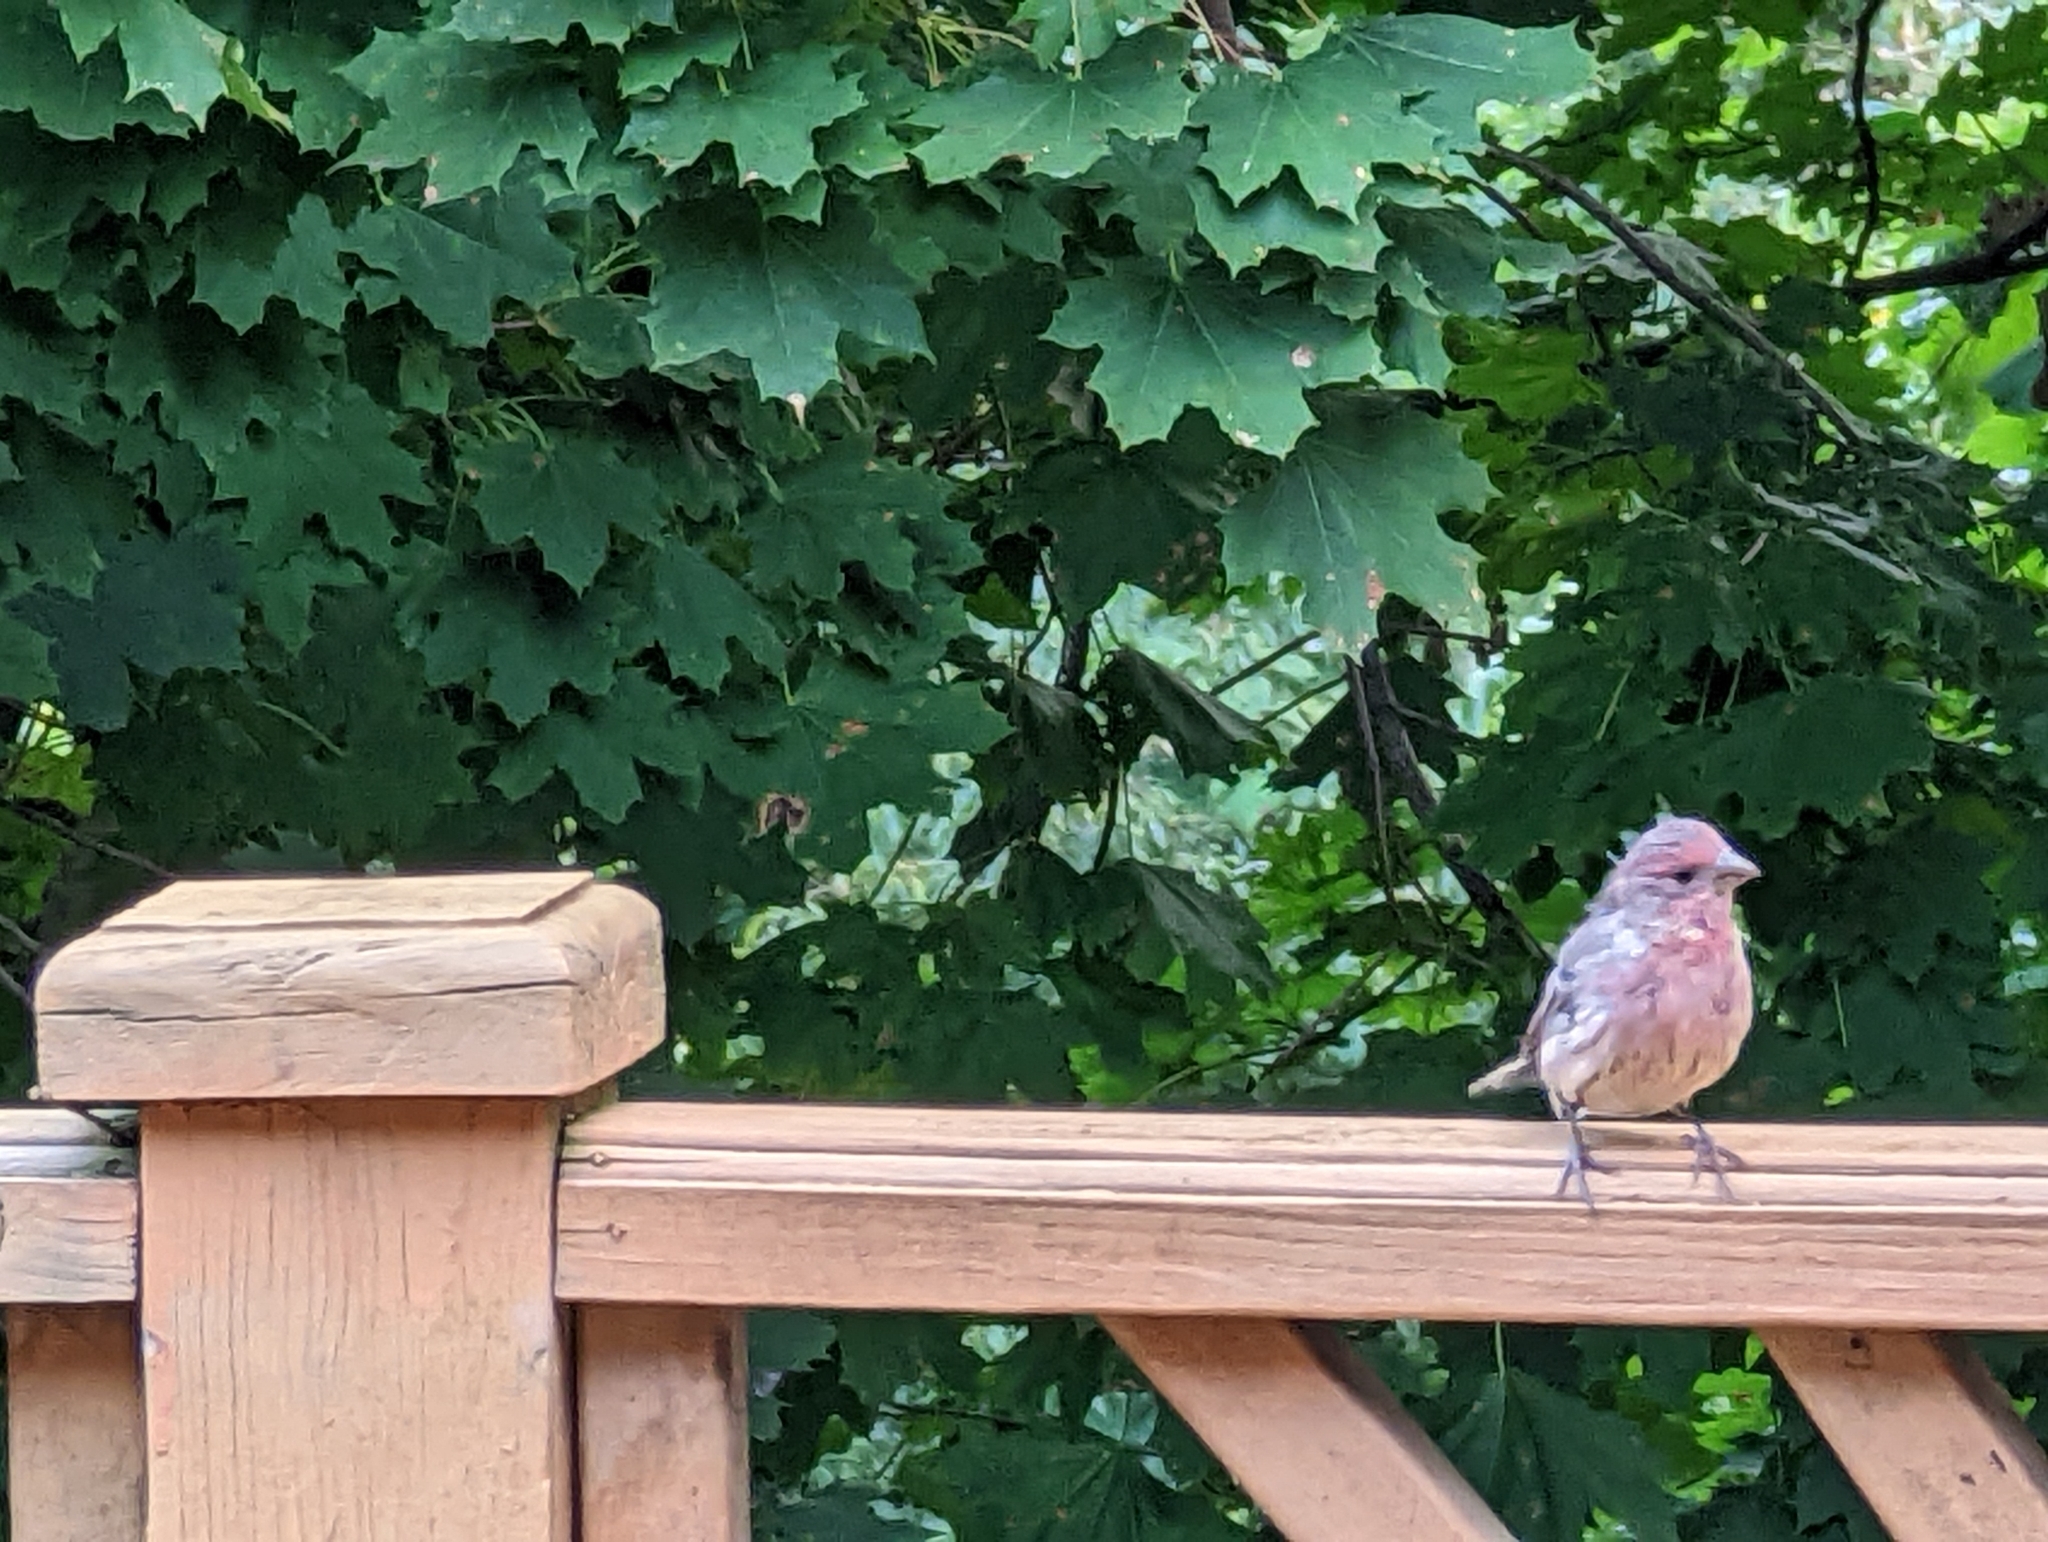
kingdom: Animalia
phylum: Chordata
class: Aves
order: Passeriformes
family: Fringillidae
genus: Haemorhous
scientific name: Haemorhous purpureus
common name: Purple finch
